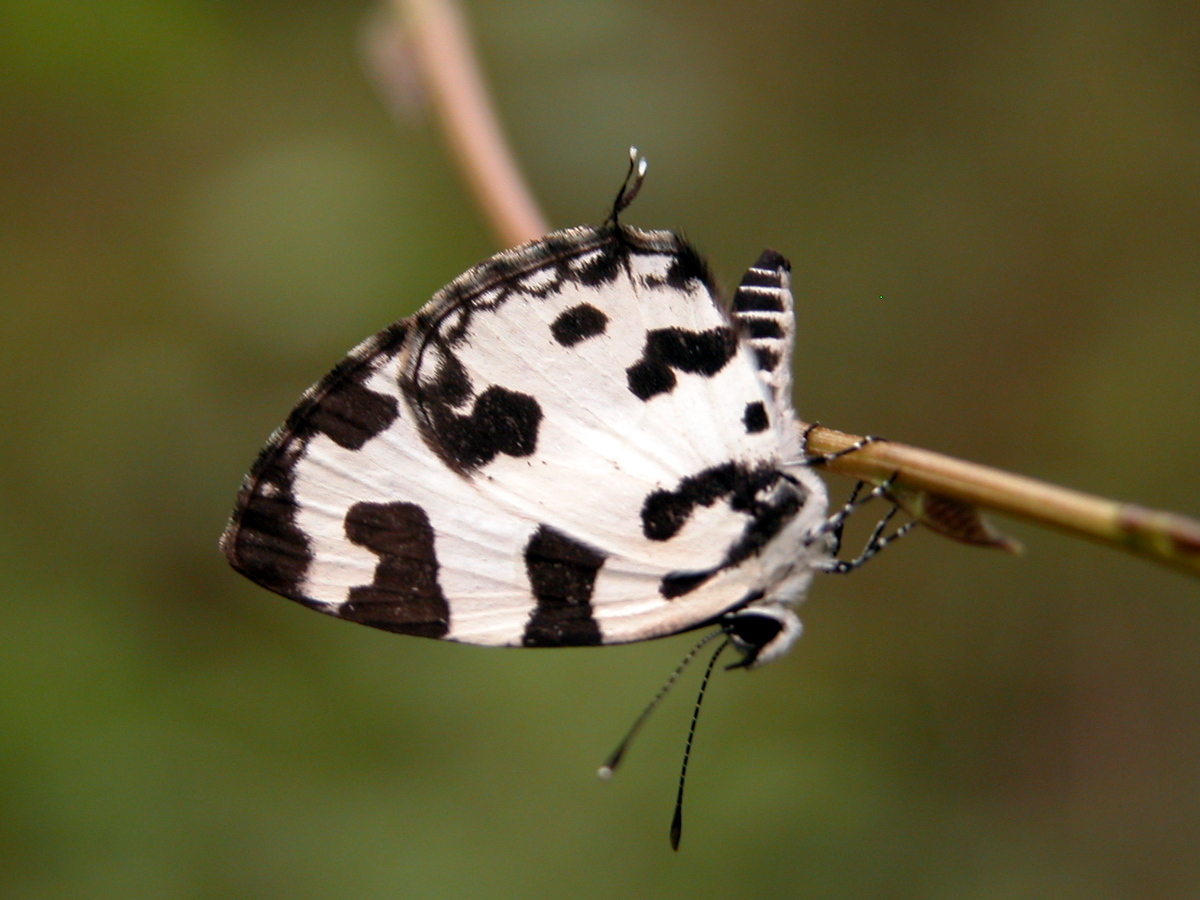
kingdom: Animalia
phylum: Arthropoda
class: Insecta
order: Lepidoptera
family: Lycaenidae
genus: Caleta
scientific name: Caleta decidia
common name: Angled pierrot
